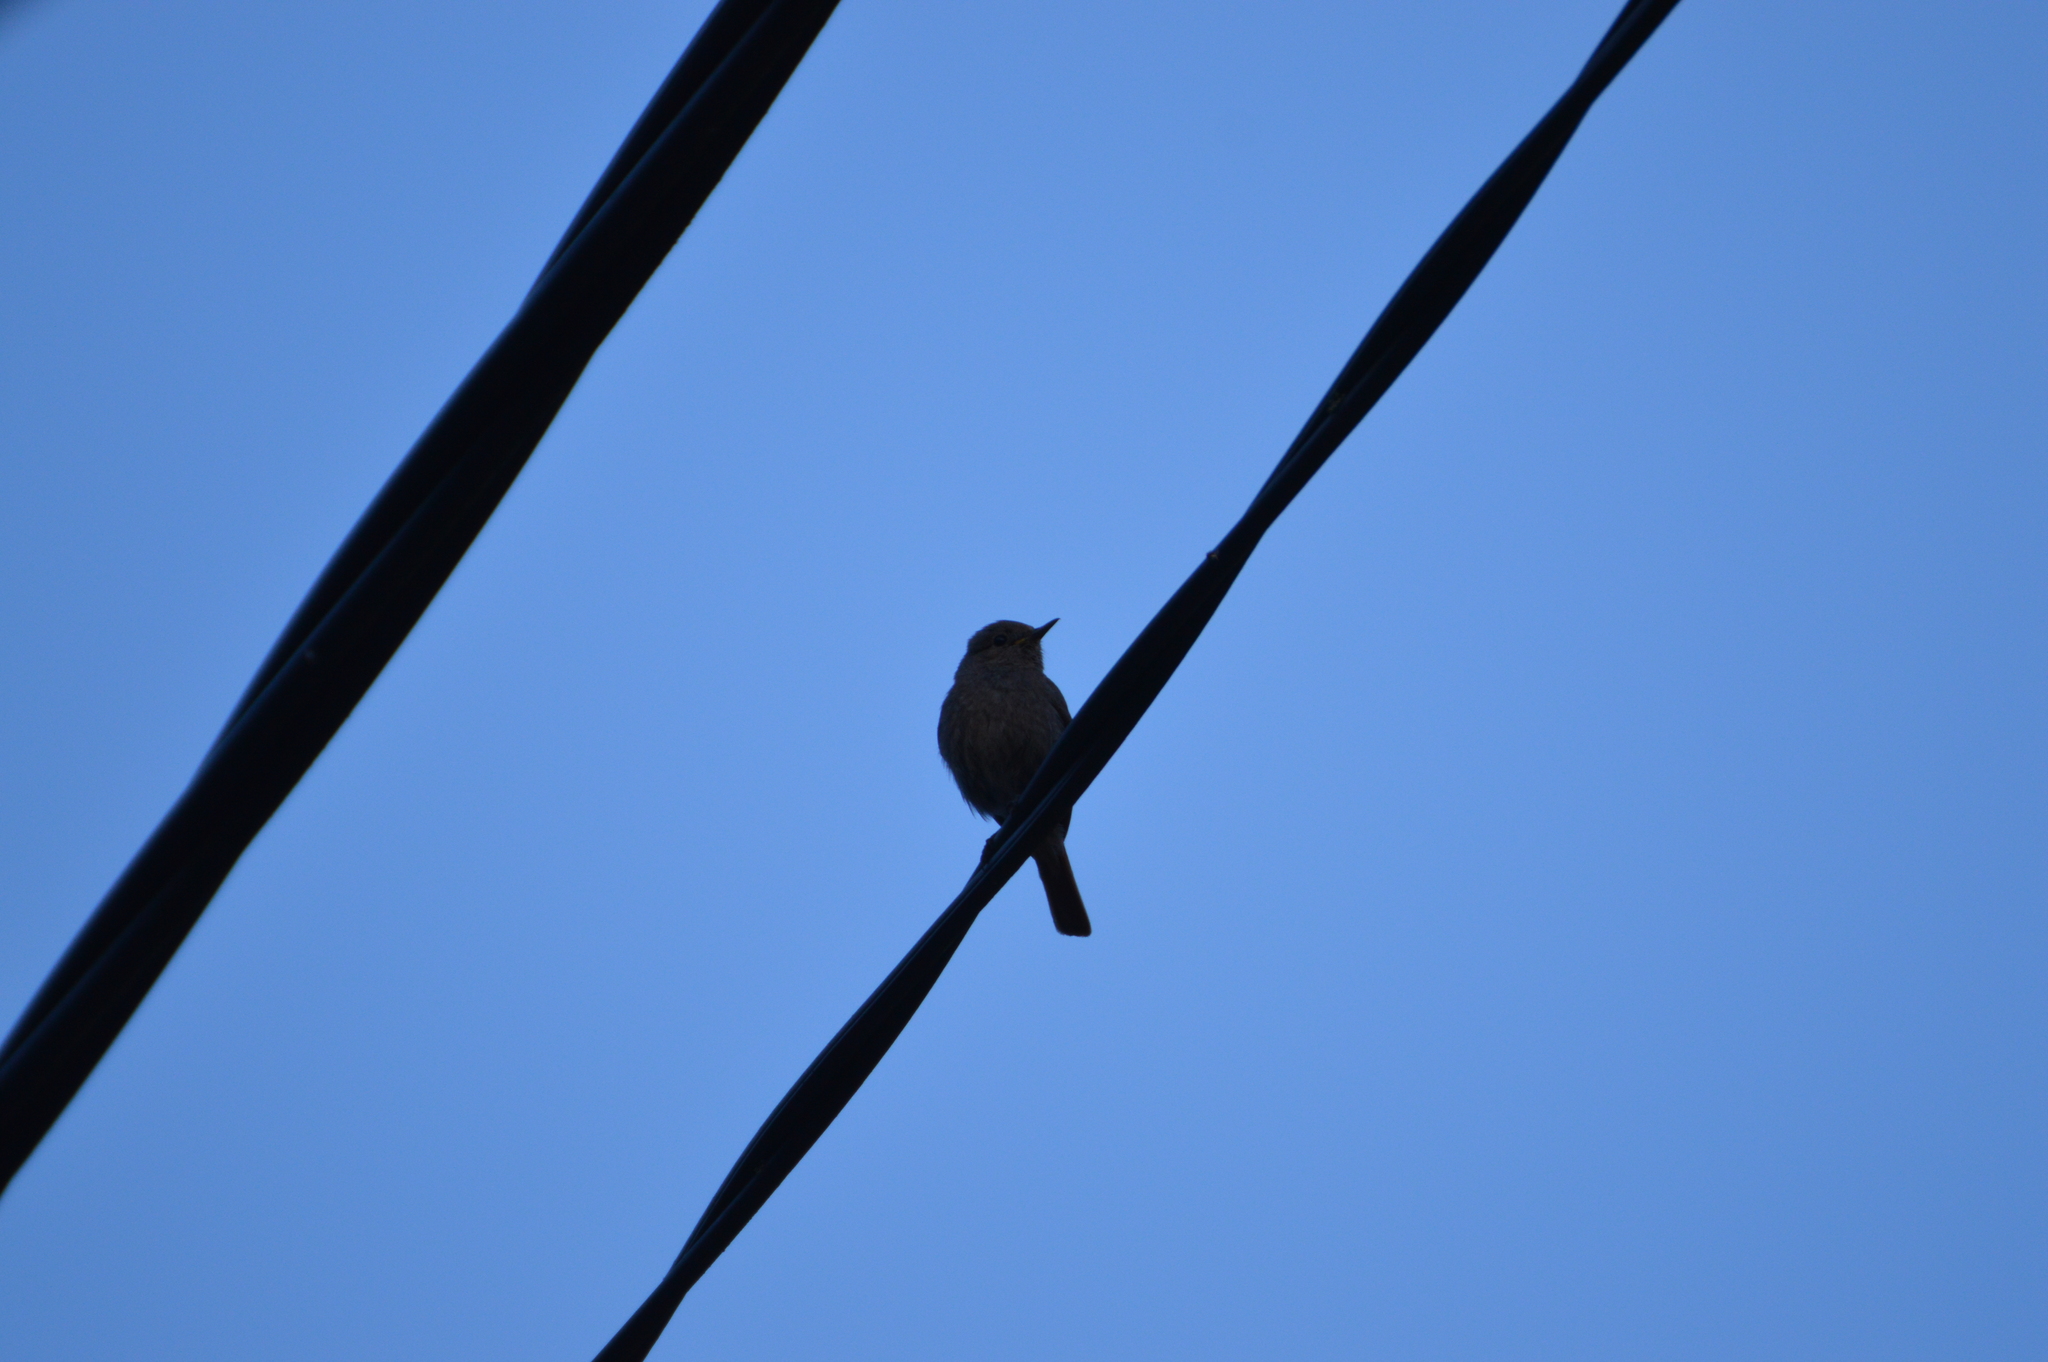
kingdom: Animalia
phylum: Chordata
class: Aves
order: Passeriformes
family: Muscicapidae
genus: Phoenicurus
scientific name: Phoenicurus ochruros
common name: Black redstart
